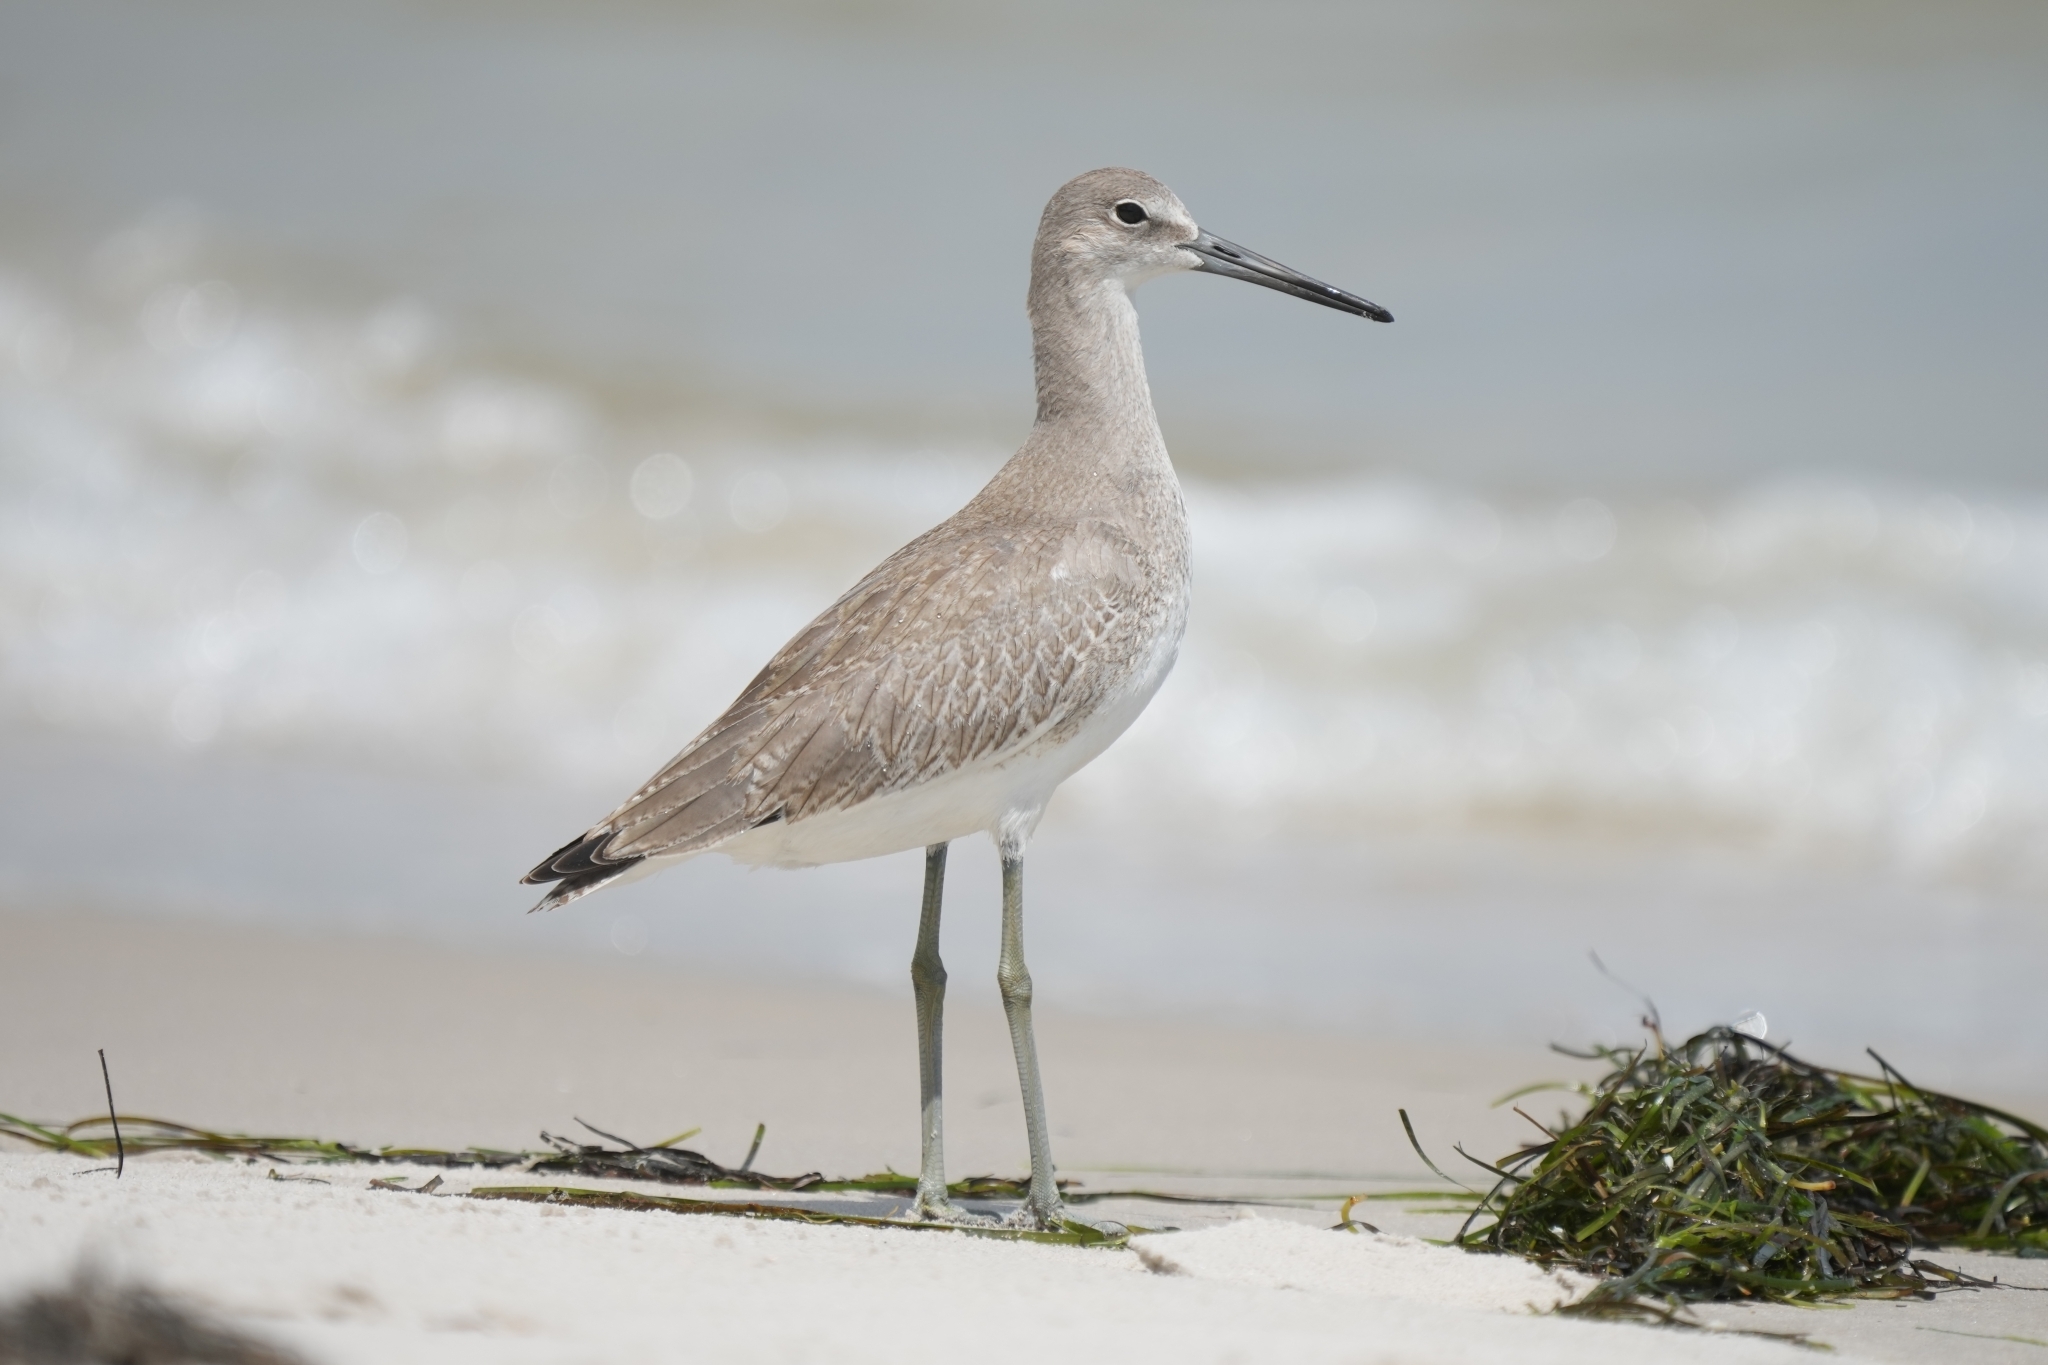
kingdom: Animalia
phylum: Chordata
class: Aves
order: Charadriiformes
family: Scolopacidae
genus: Tringa
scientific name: Tringa semipalmata
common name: Willet
